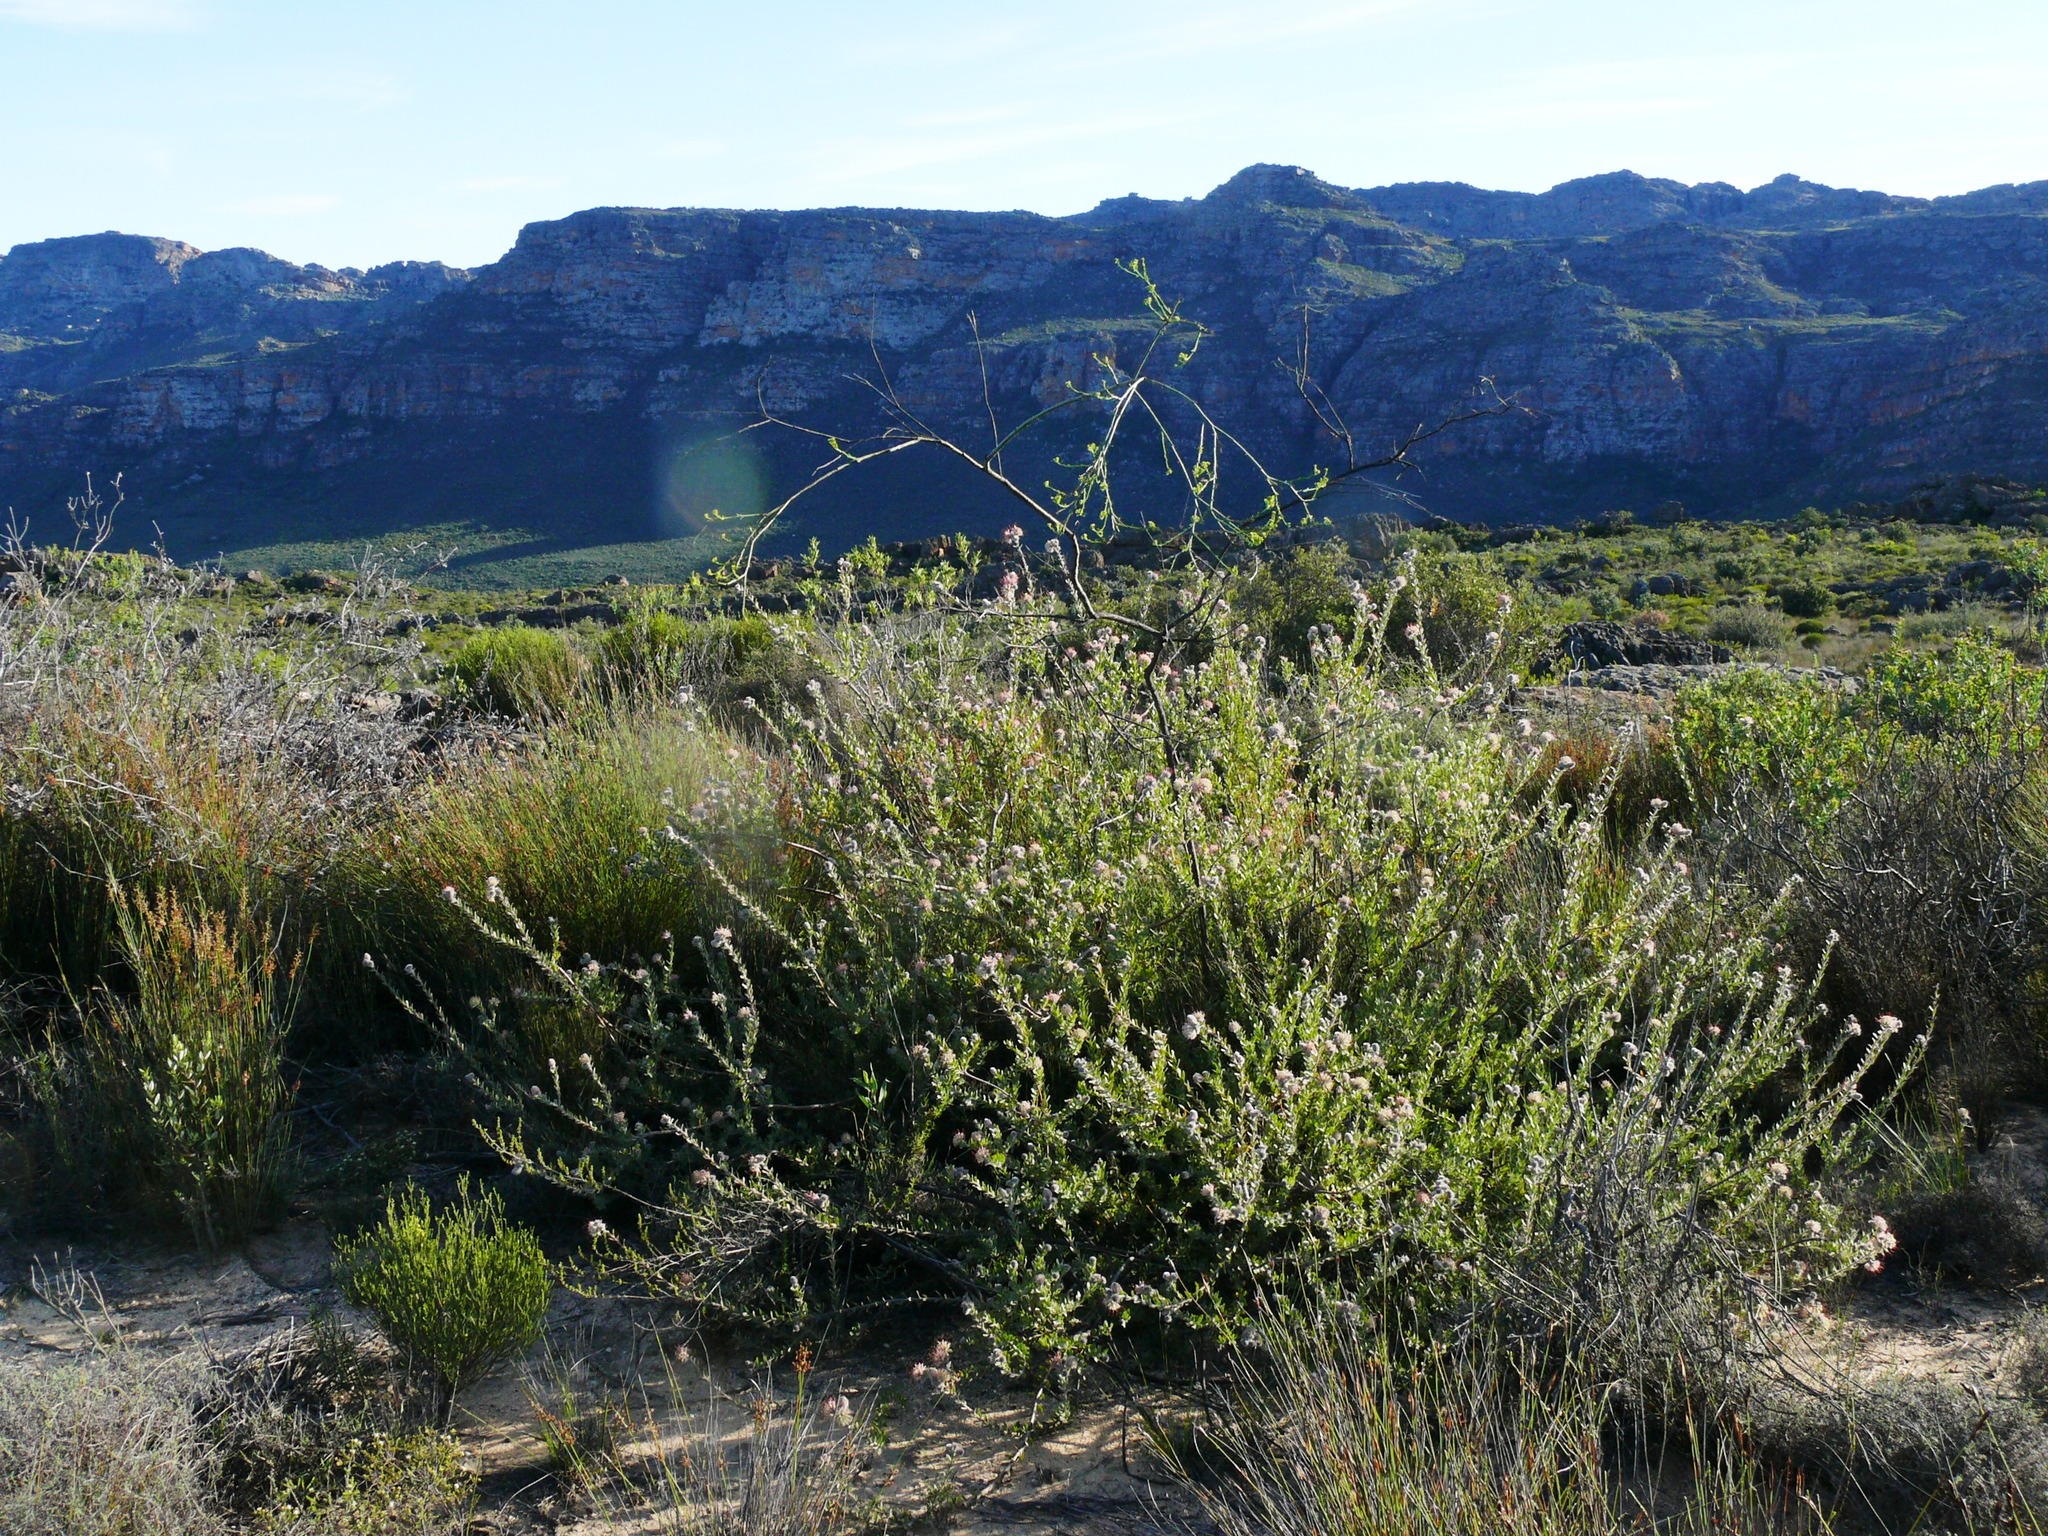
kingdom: Plantae
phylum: Tracheophyta
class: Magnoliopsida
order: Proteales
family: Proteaceae
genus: Leucospermum
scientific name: Leucospermum calligerum
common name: Arid pincushion
